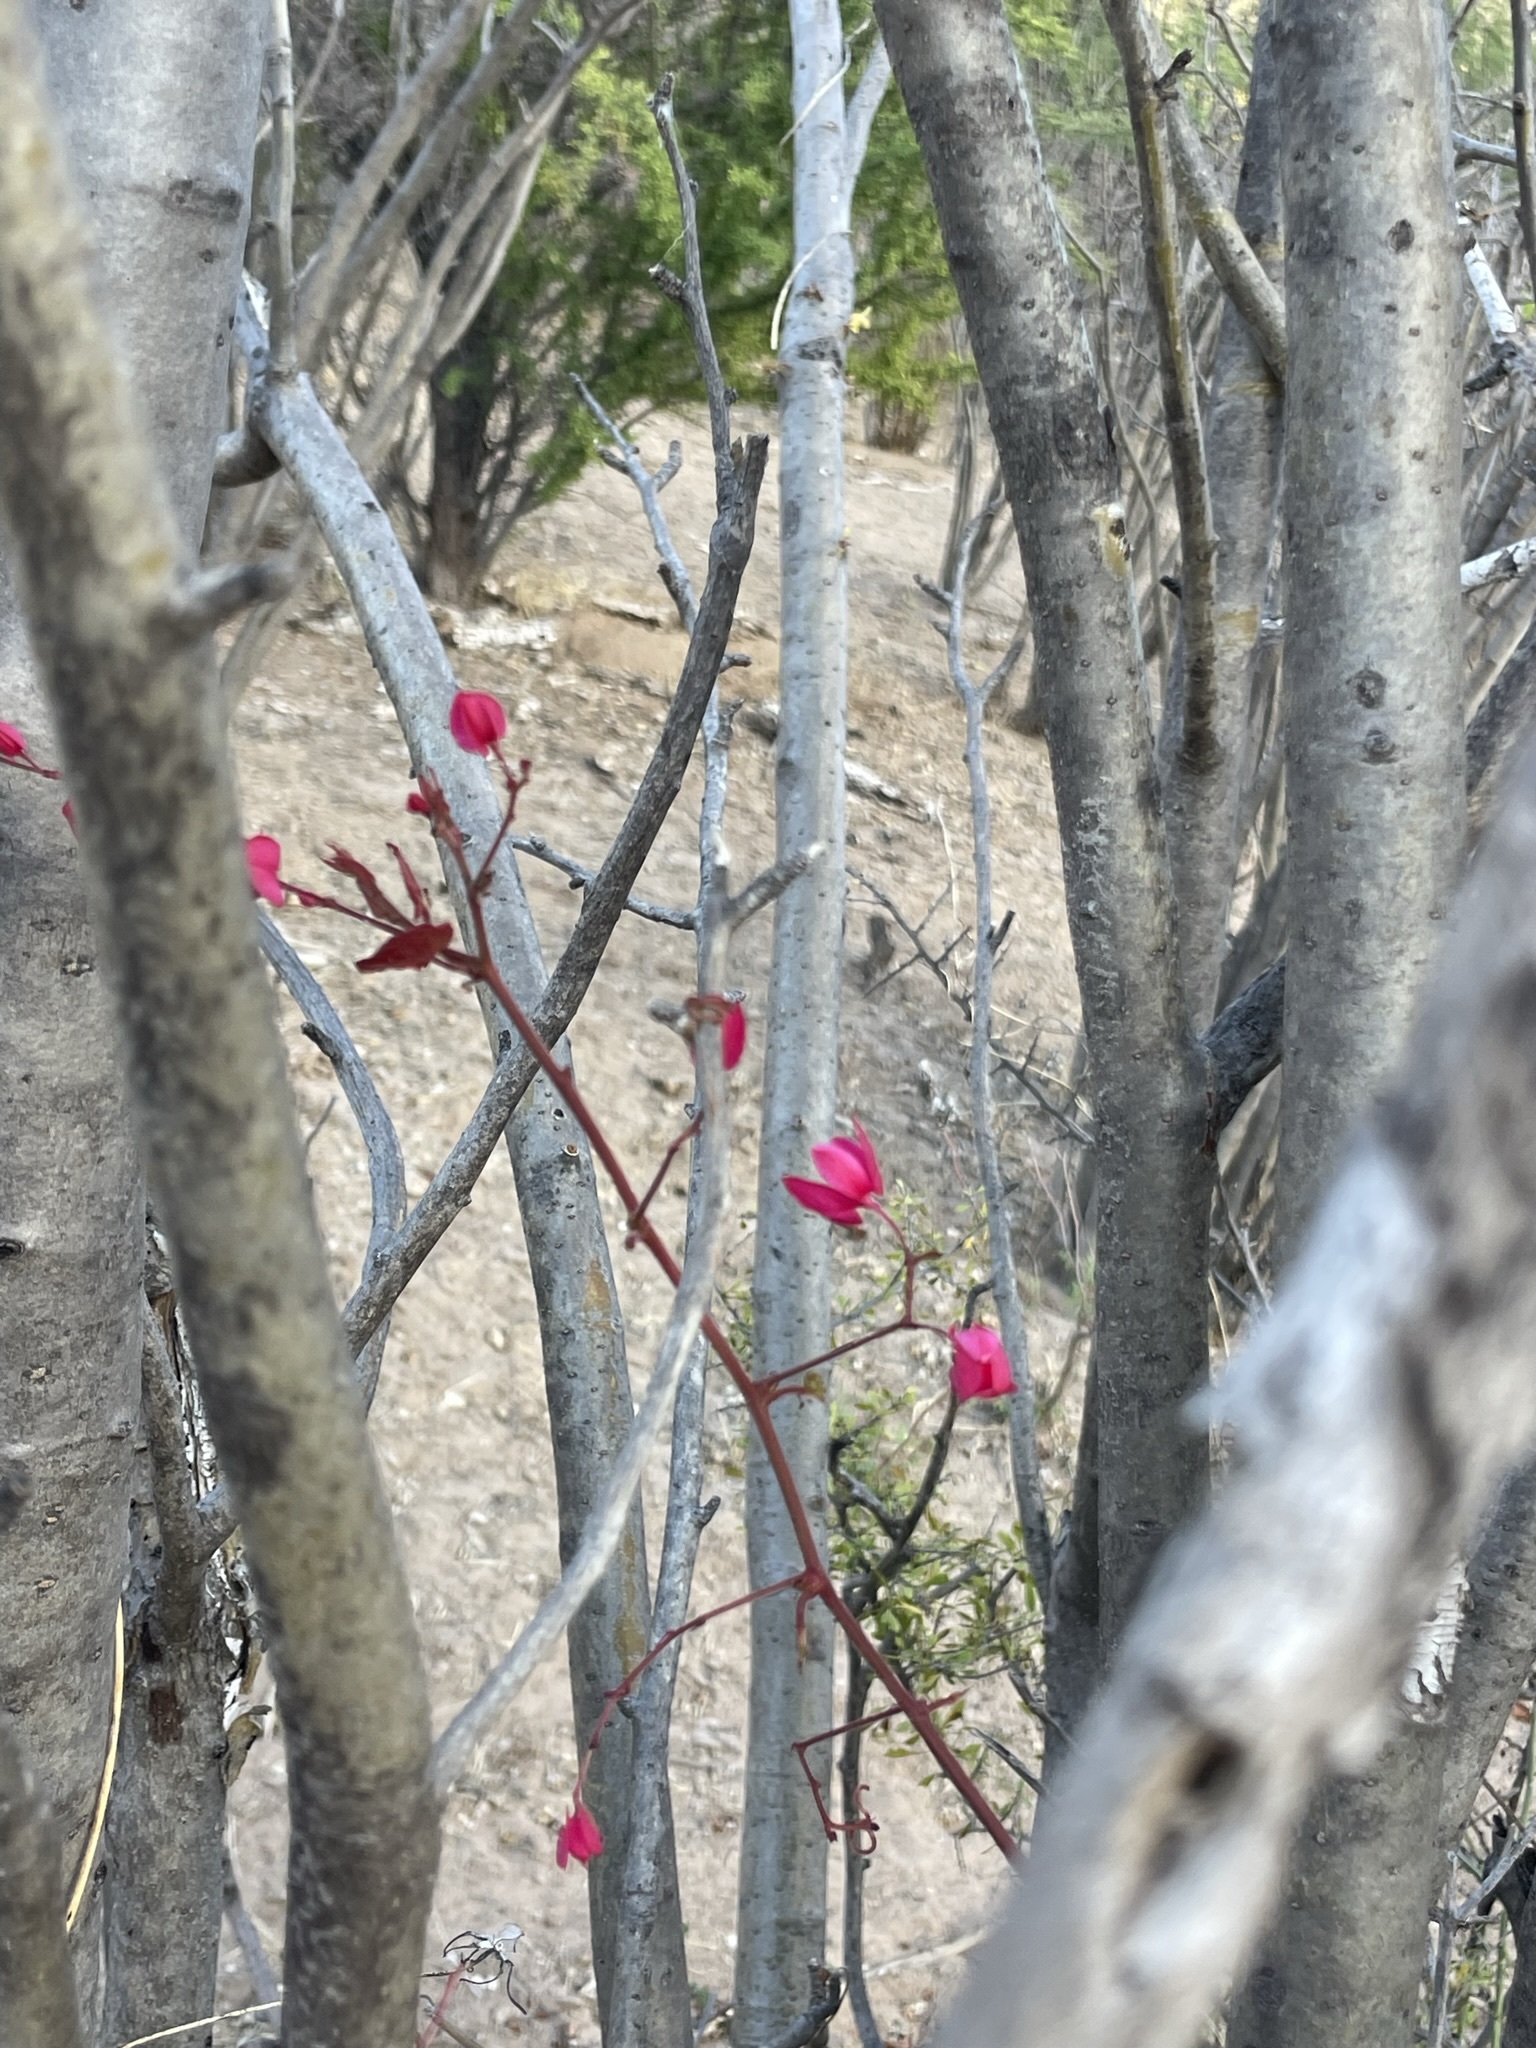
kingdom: Plantae
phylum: Tracheophyta
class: Magnoliopsida
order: Caryophyllales
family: Polygonaceae
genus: Antigonon
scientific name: Antigonon leptopus
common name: Coral vine
